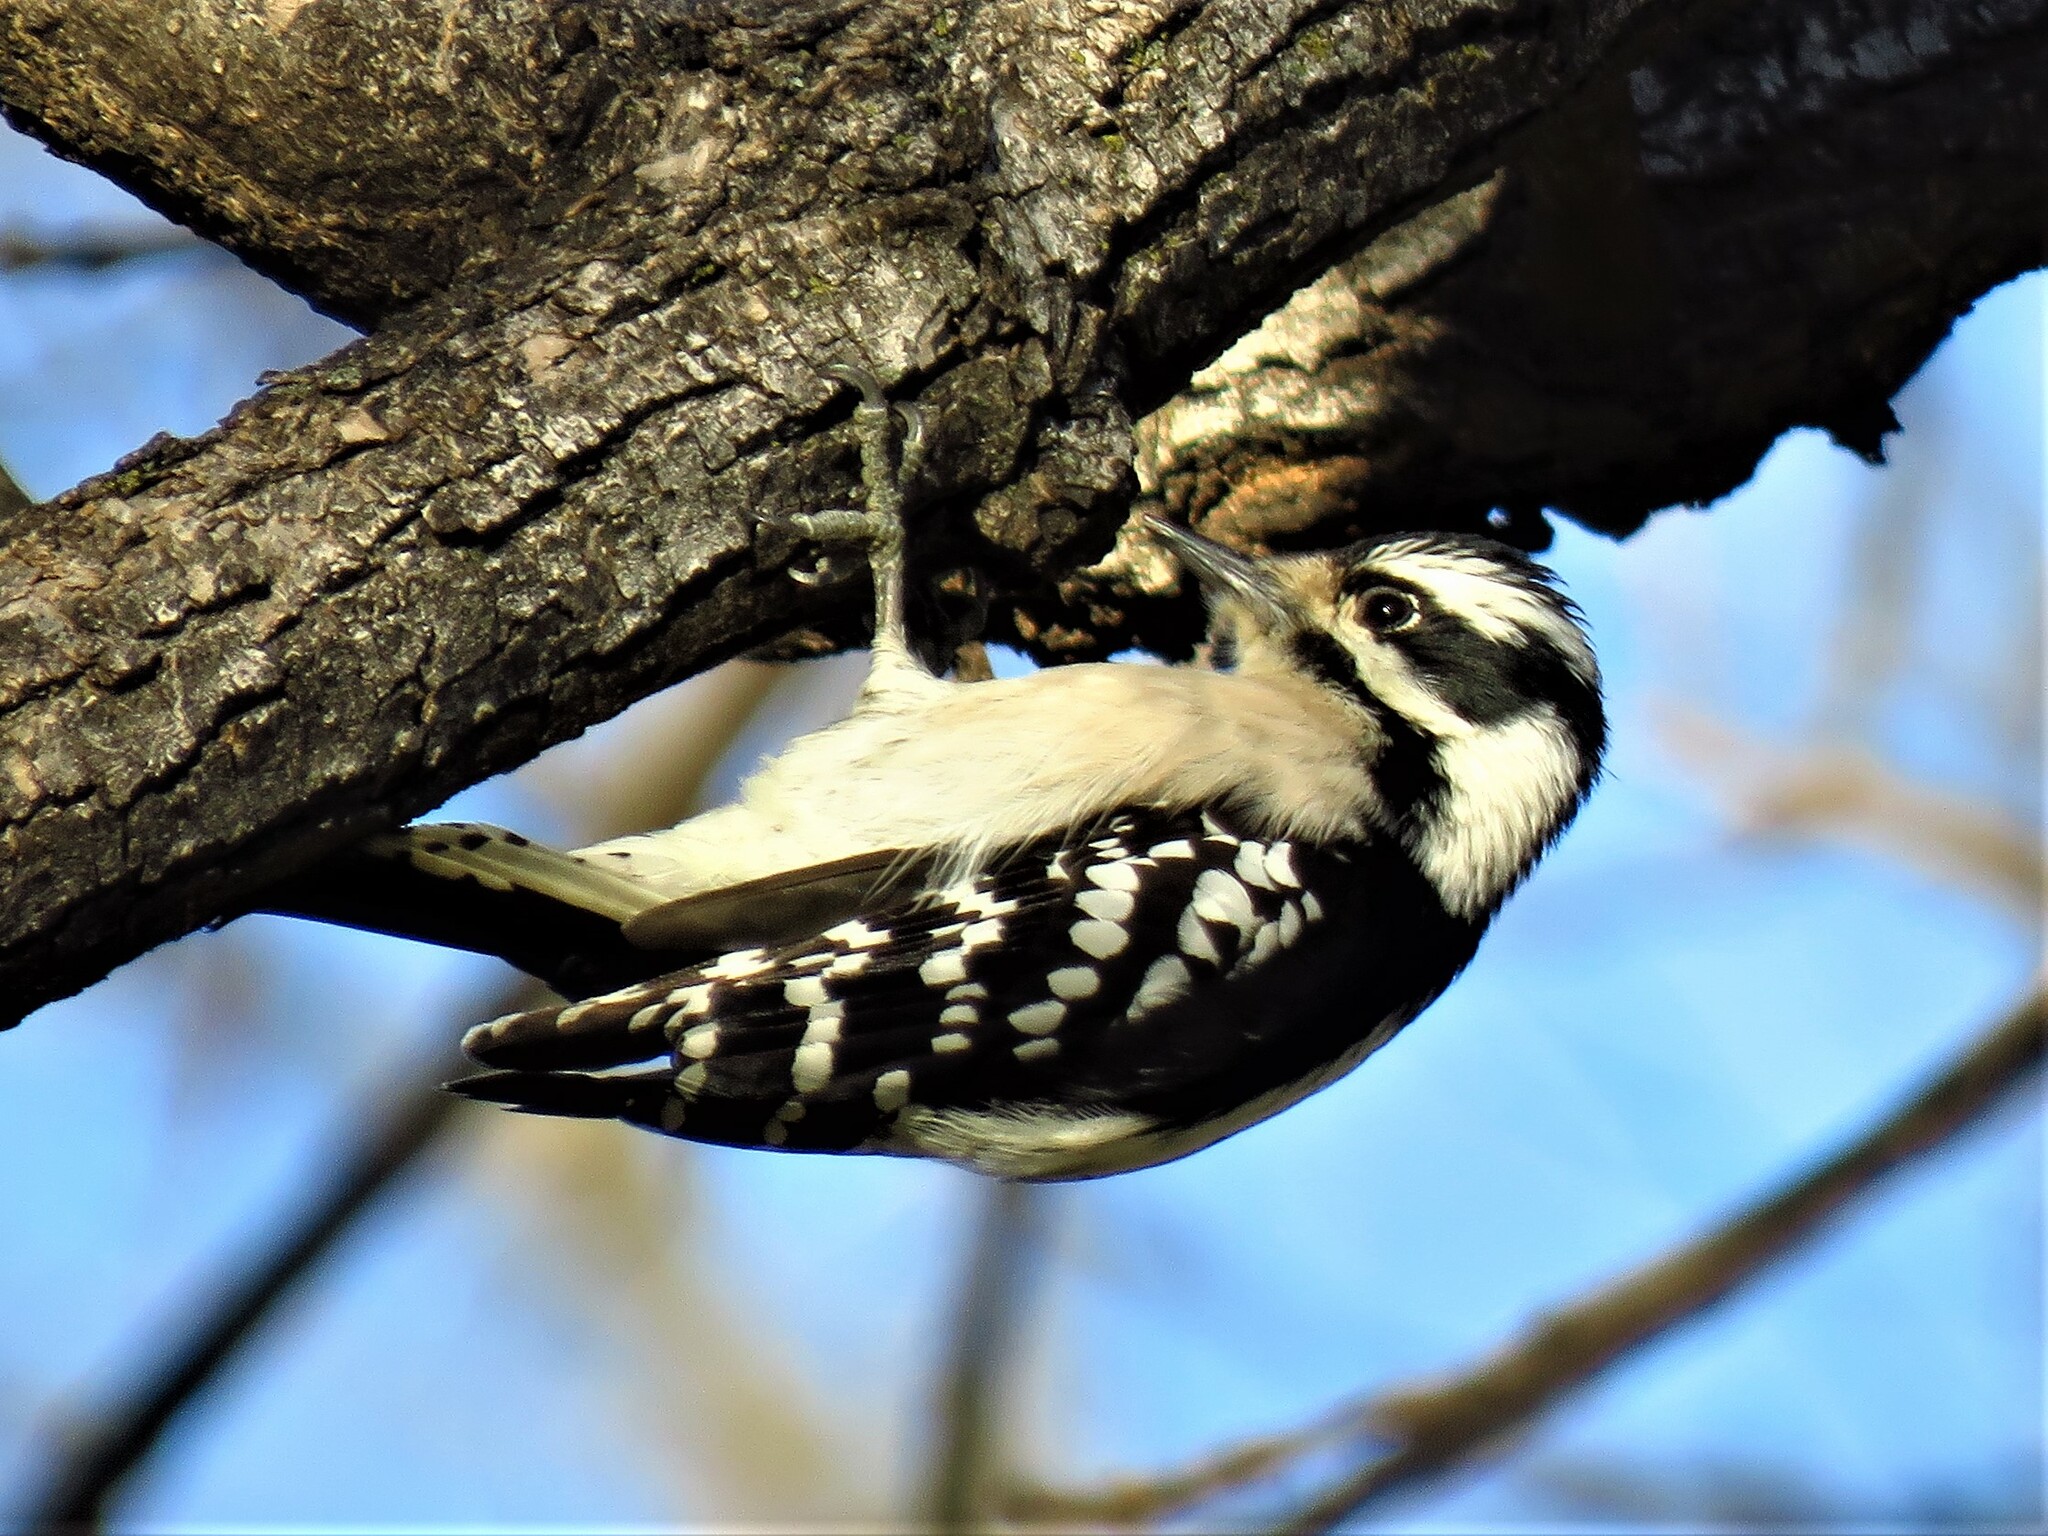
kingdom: Animalia
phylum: Chordata
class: Aves
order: Piciformes
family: Picidae
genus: Dryobates
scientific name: Dryobates pubescens
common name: Downy woodpecker
